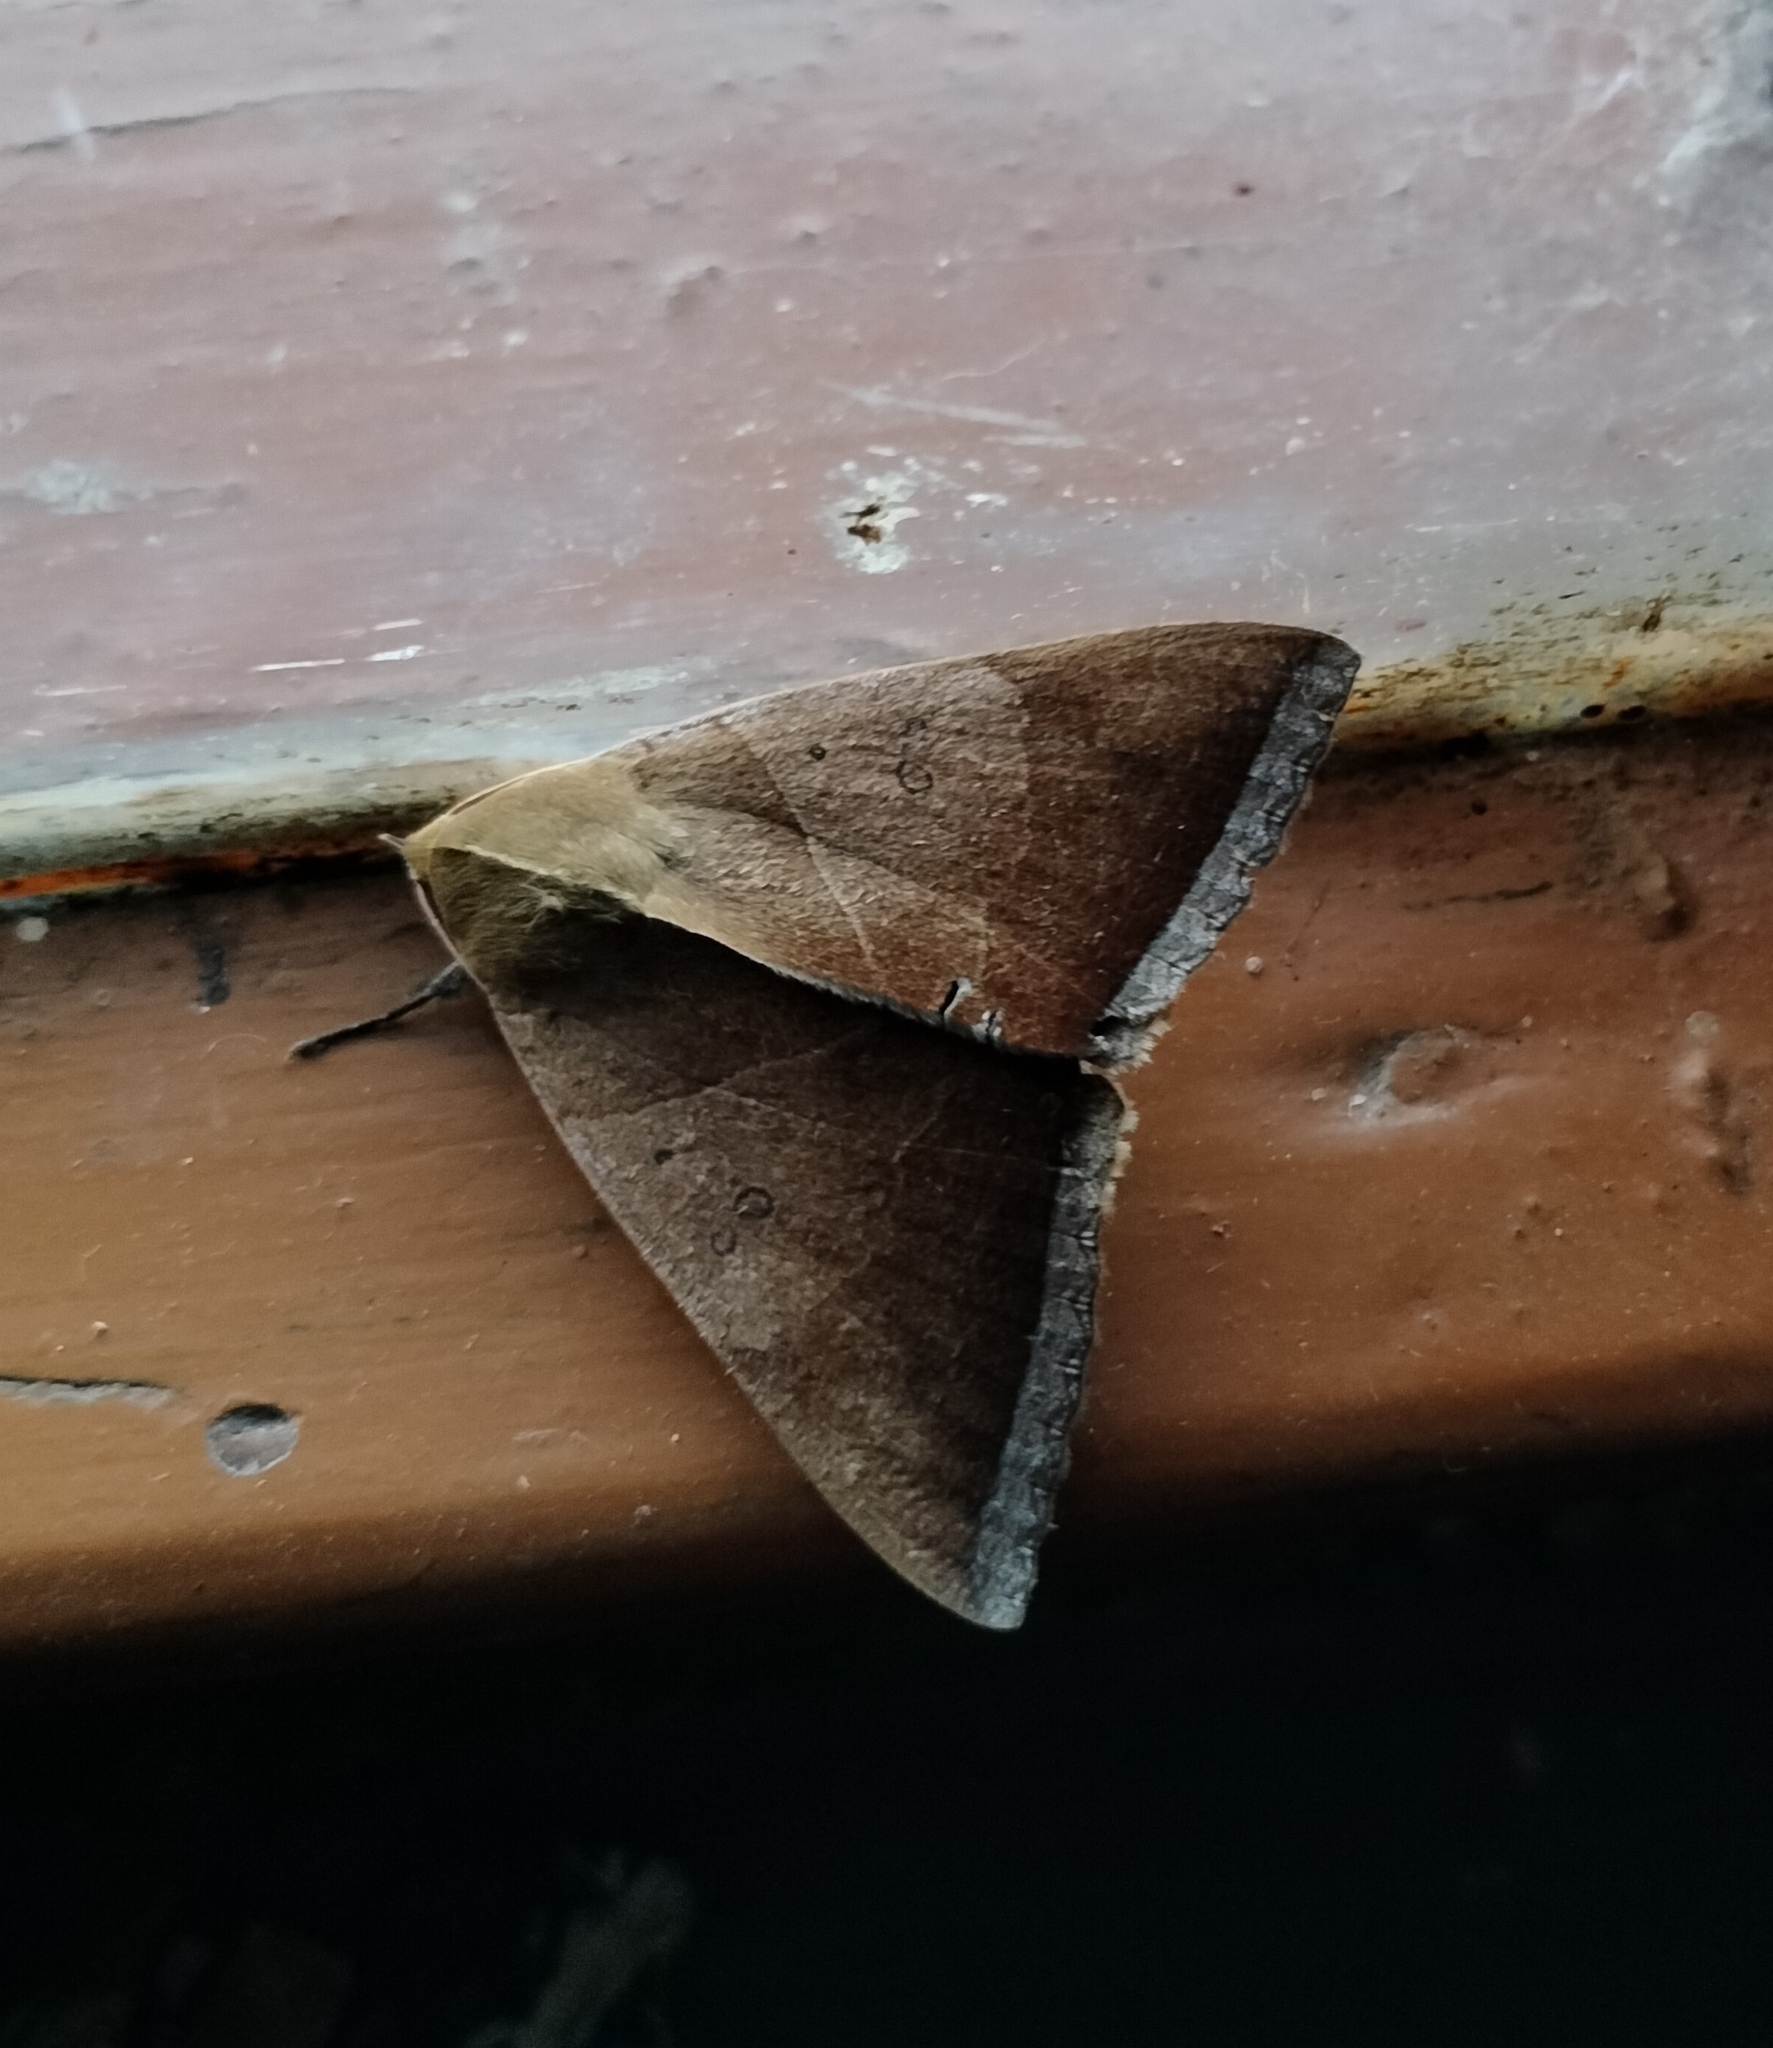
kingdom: Animalia
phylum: Arthropoda
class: Insecta
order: Lepidoptera
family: Erebidae
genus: Artena
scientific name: Artena dotata
